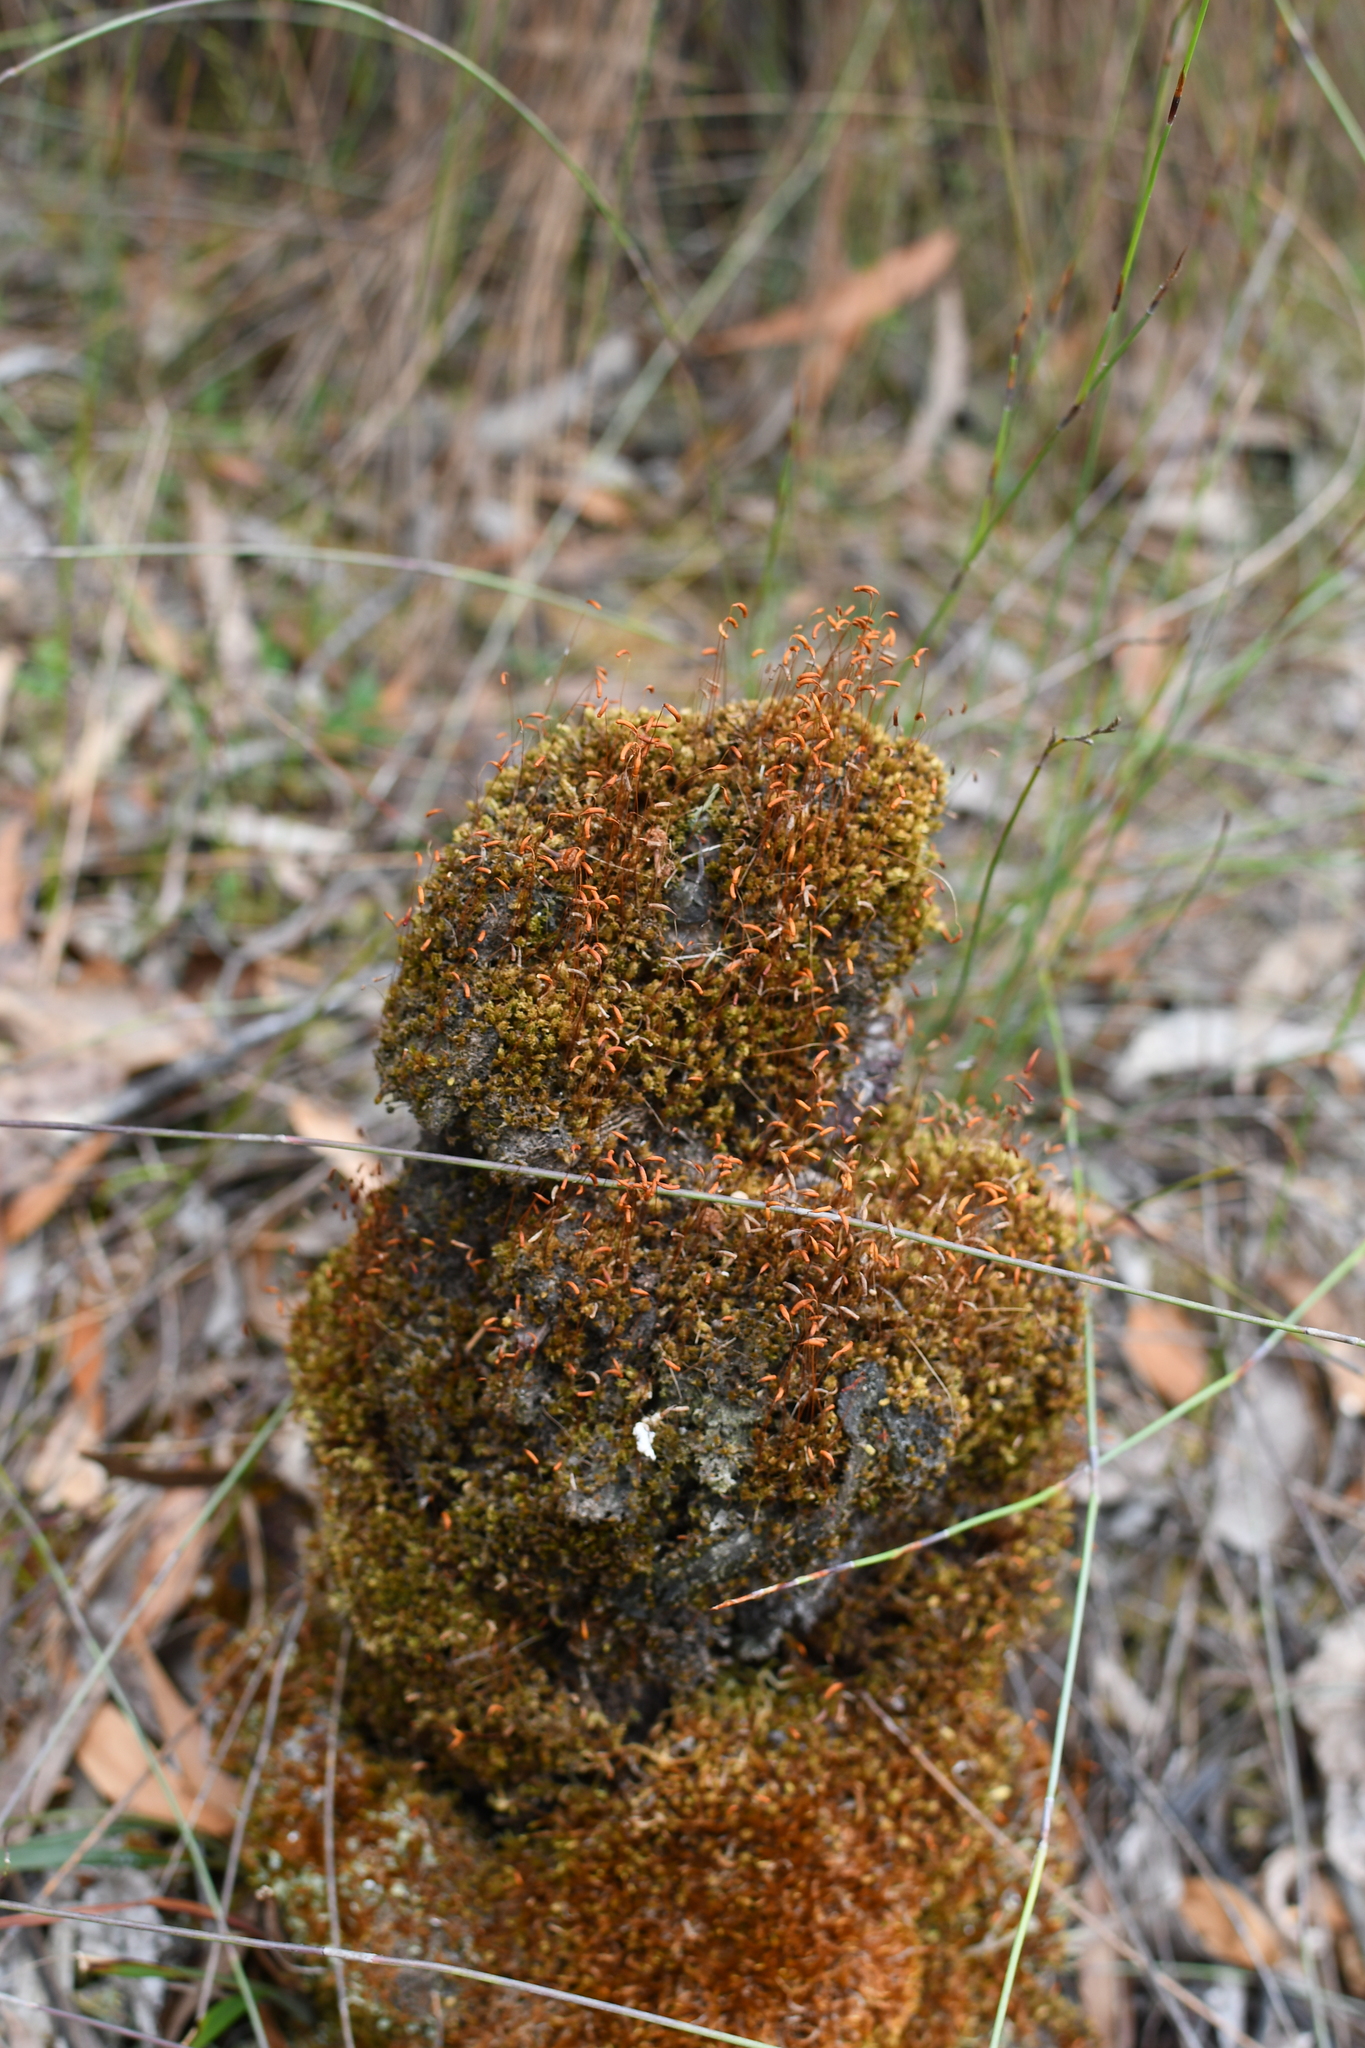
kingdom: Plantae
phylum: Bryophyta
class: Bryopsida
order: Hypnales
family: Sematophyllaceae
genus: Sematophyllum
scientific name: Sematophyllum homomallum
